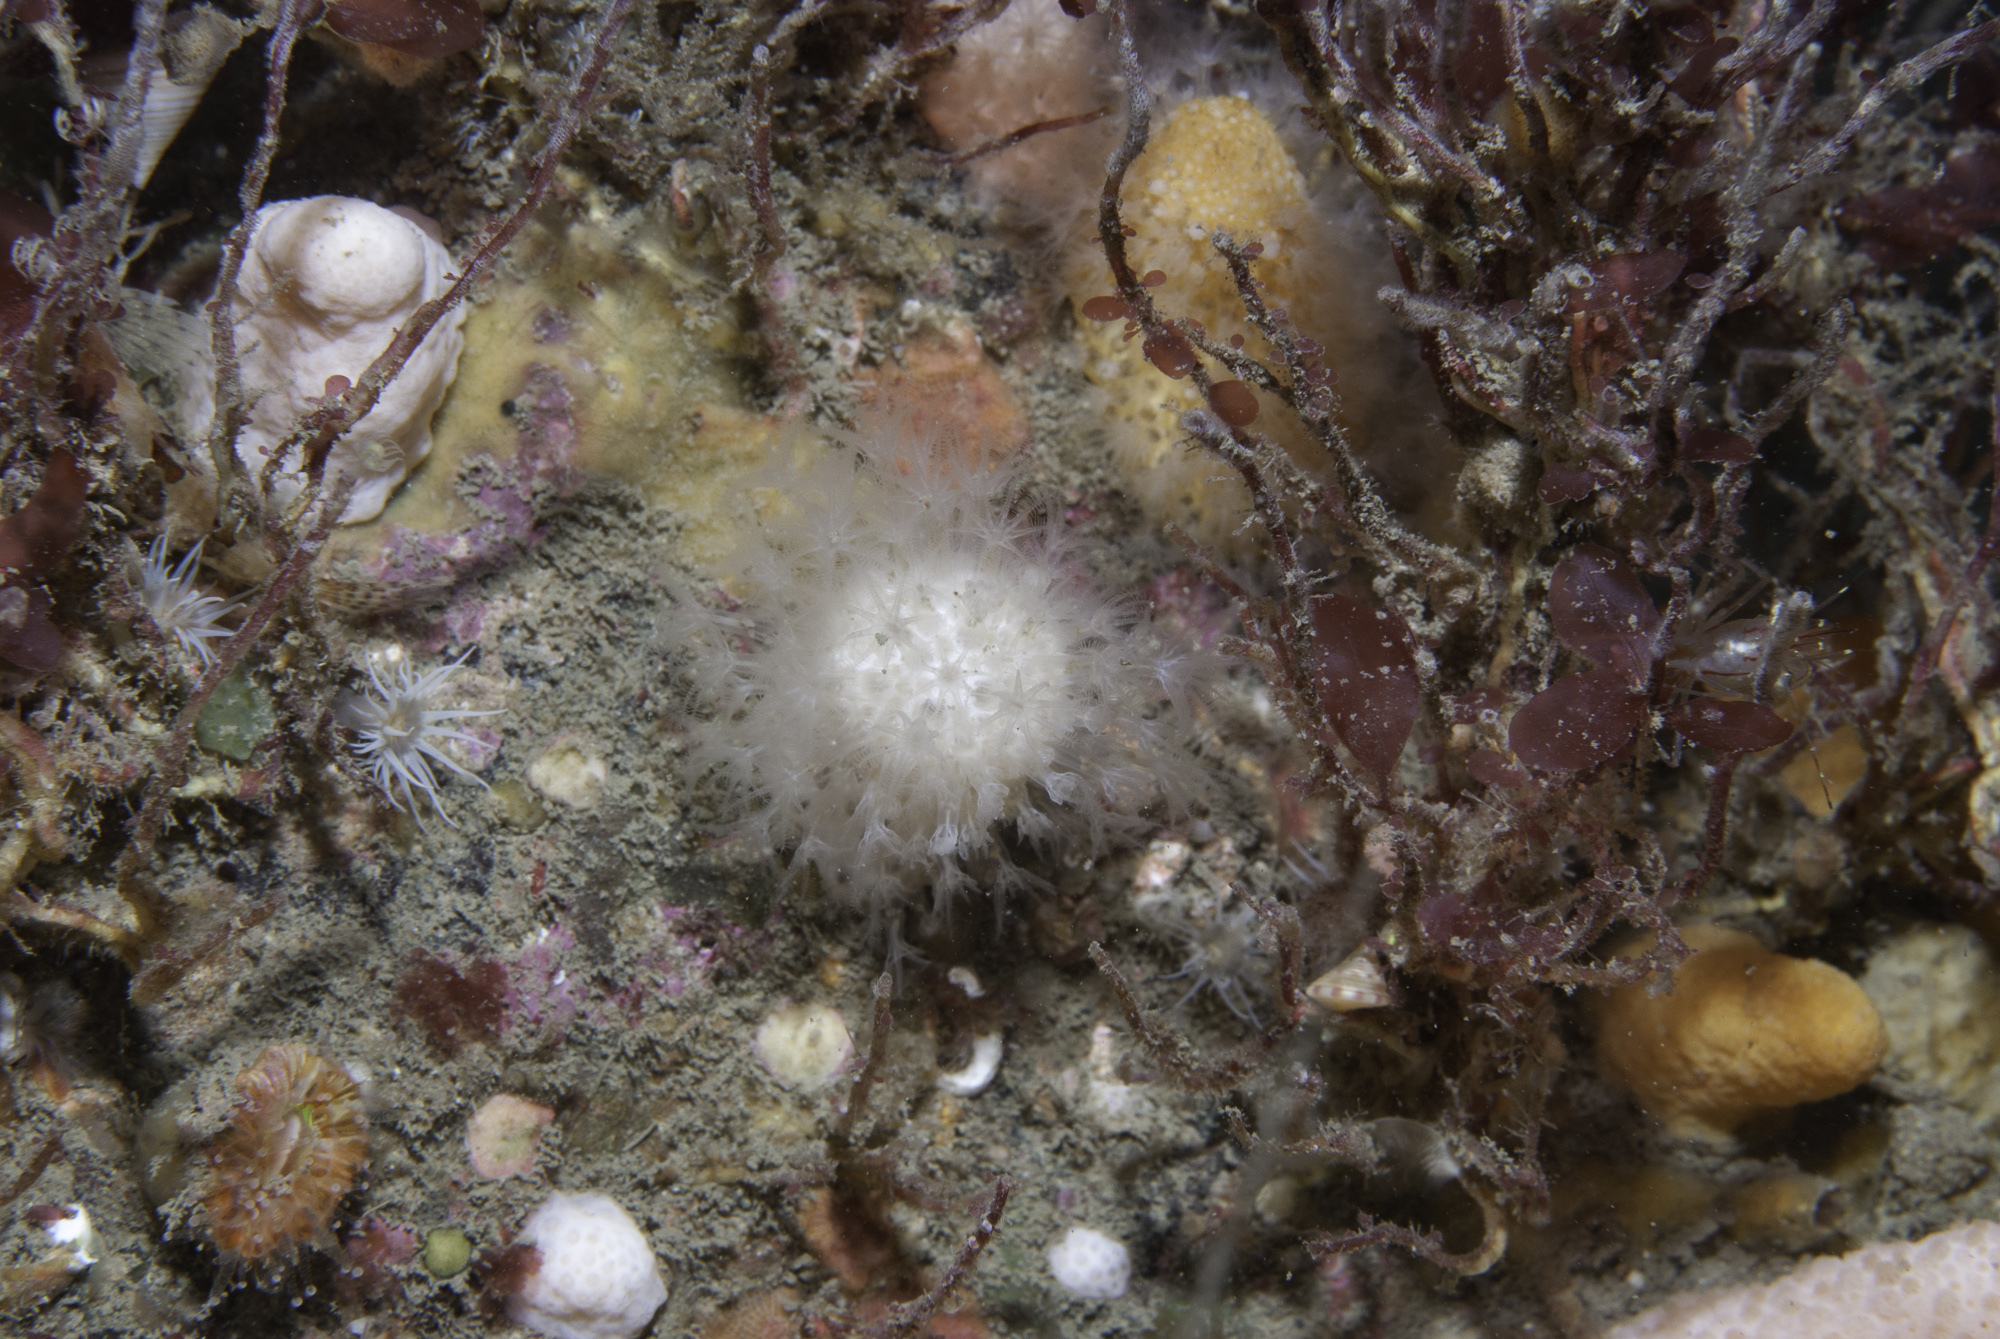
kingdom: Animalia
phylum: Cnidaria
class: Anthozoa
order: Malacalcyonacea
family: Alcyoniidae
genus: Alcyonium
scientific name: Alcyonium digitatum
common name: Dead man's fingers
